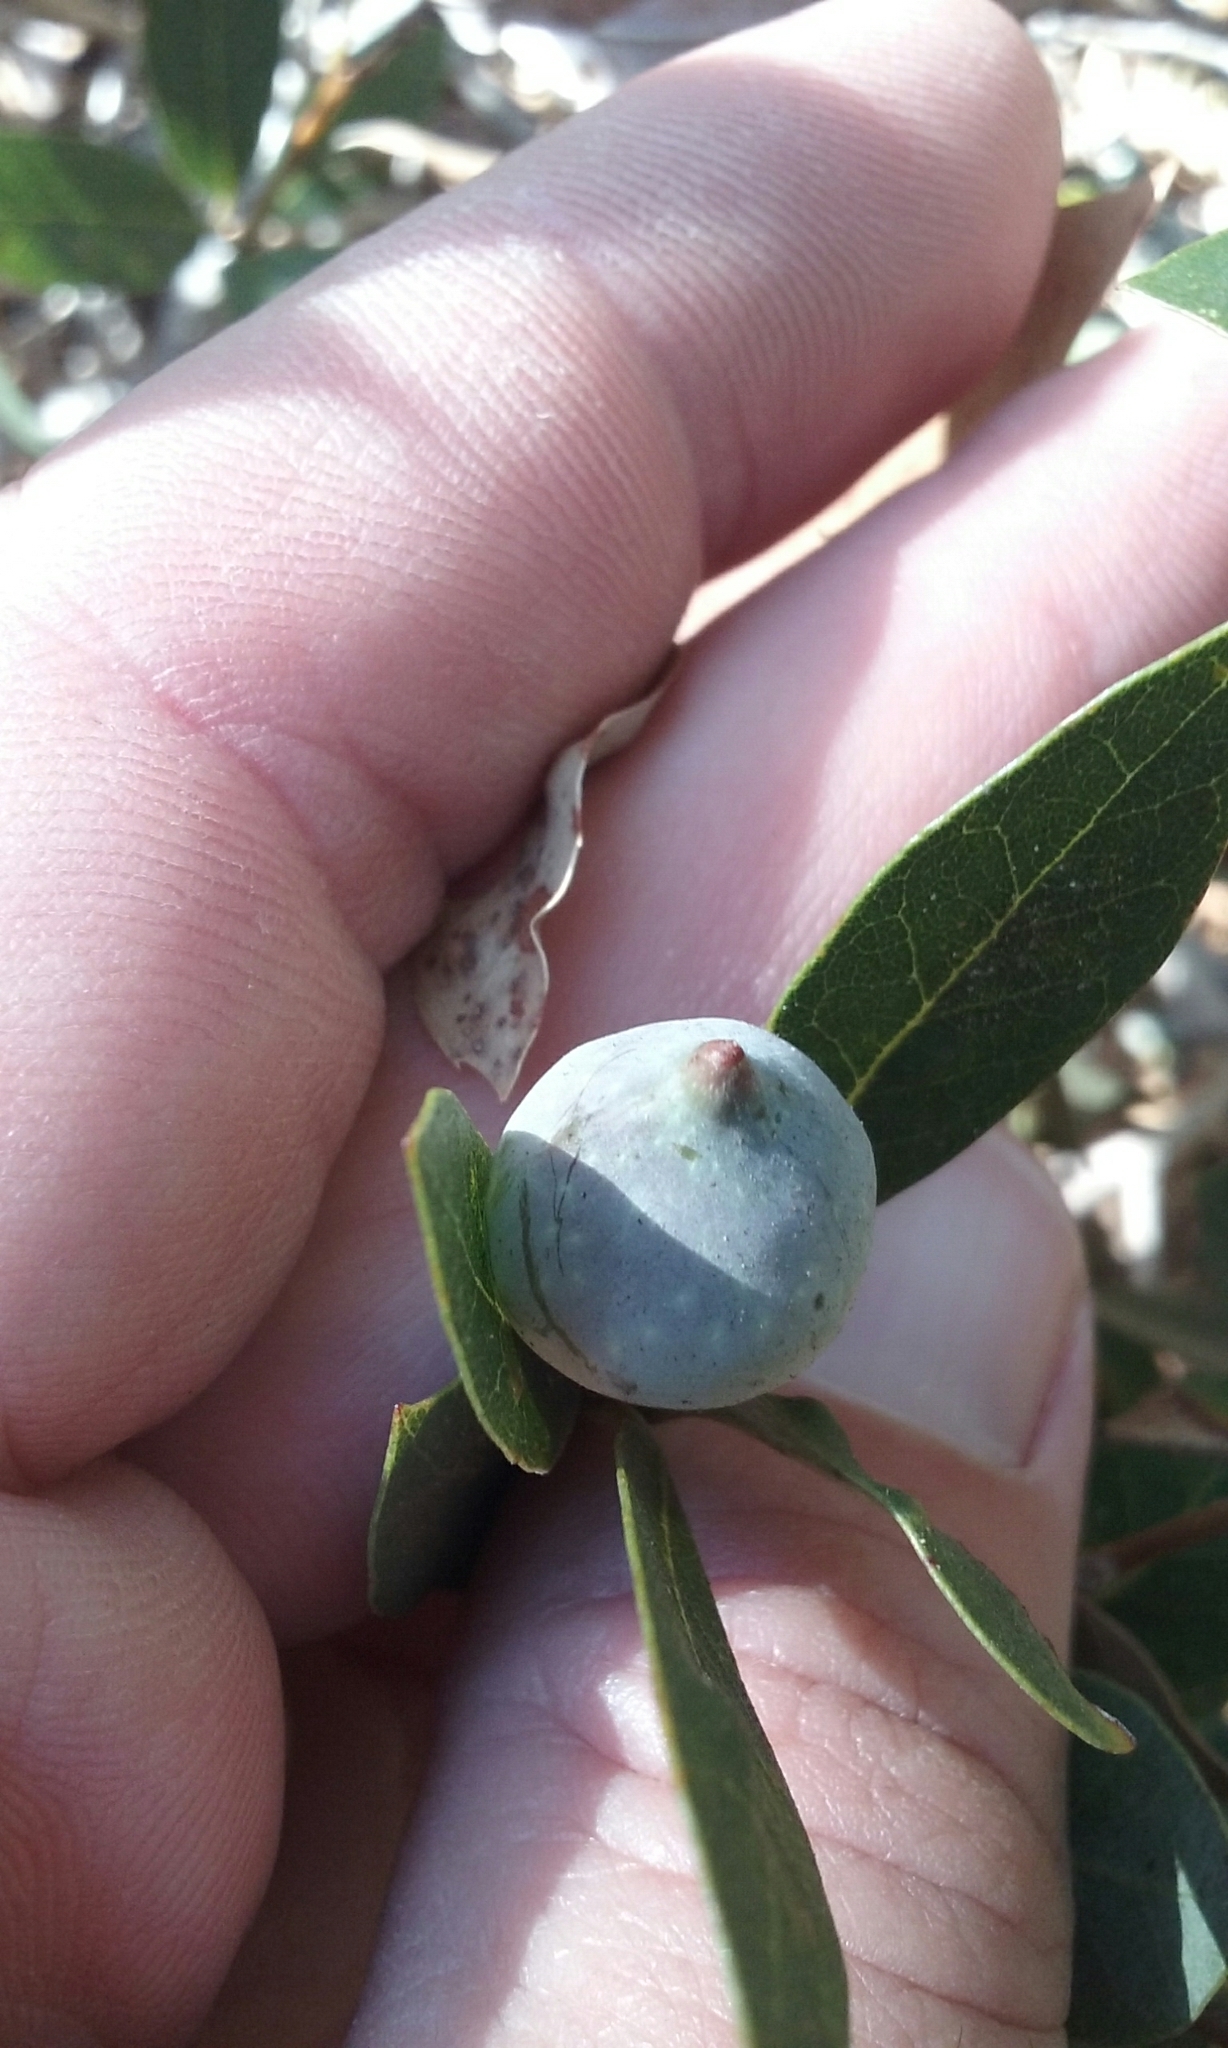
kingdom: Animalia
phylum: Arthropoda
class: Insecta
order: Hymenoptera
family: Cynipidae
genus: Heteroecus
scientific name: Heteroecus pacificus
